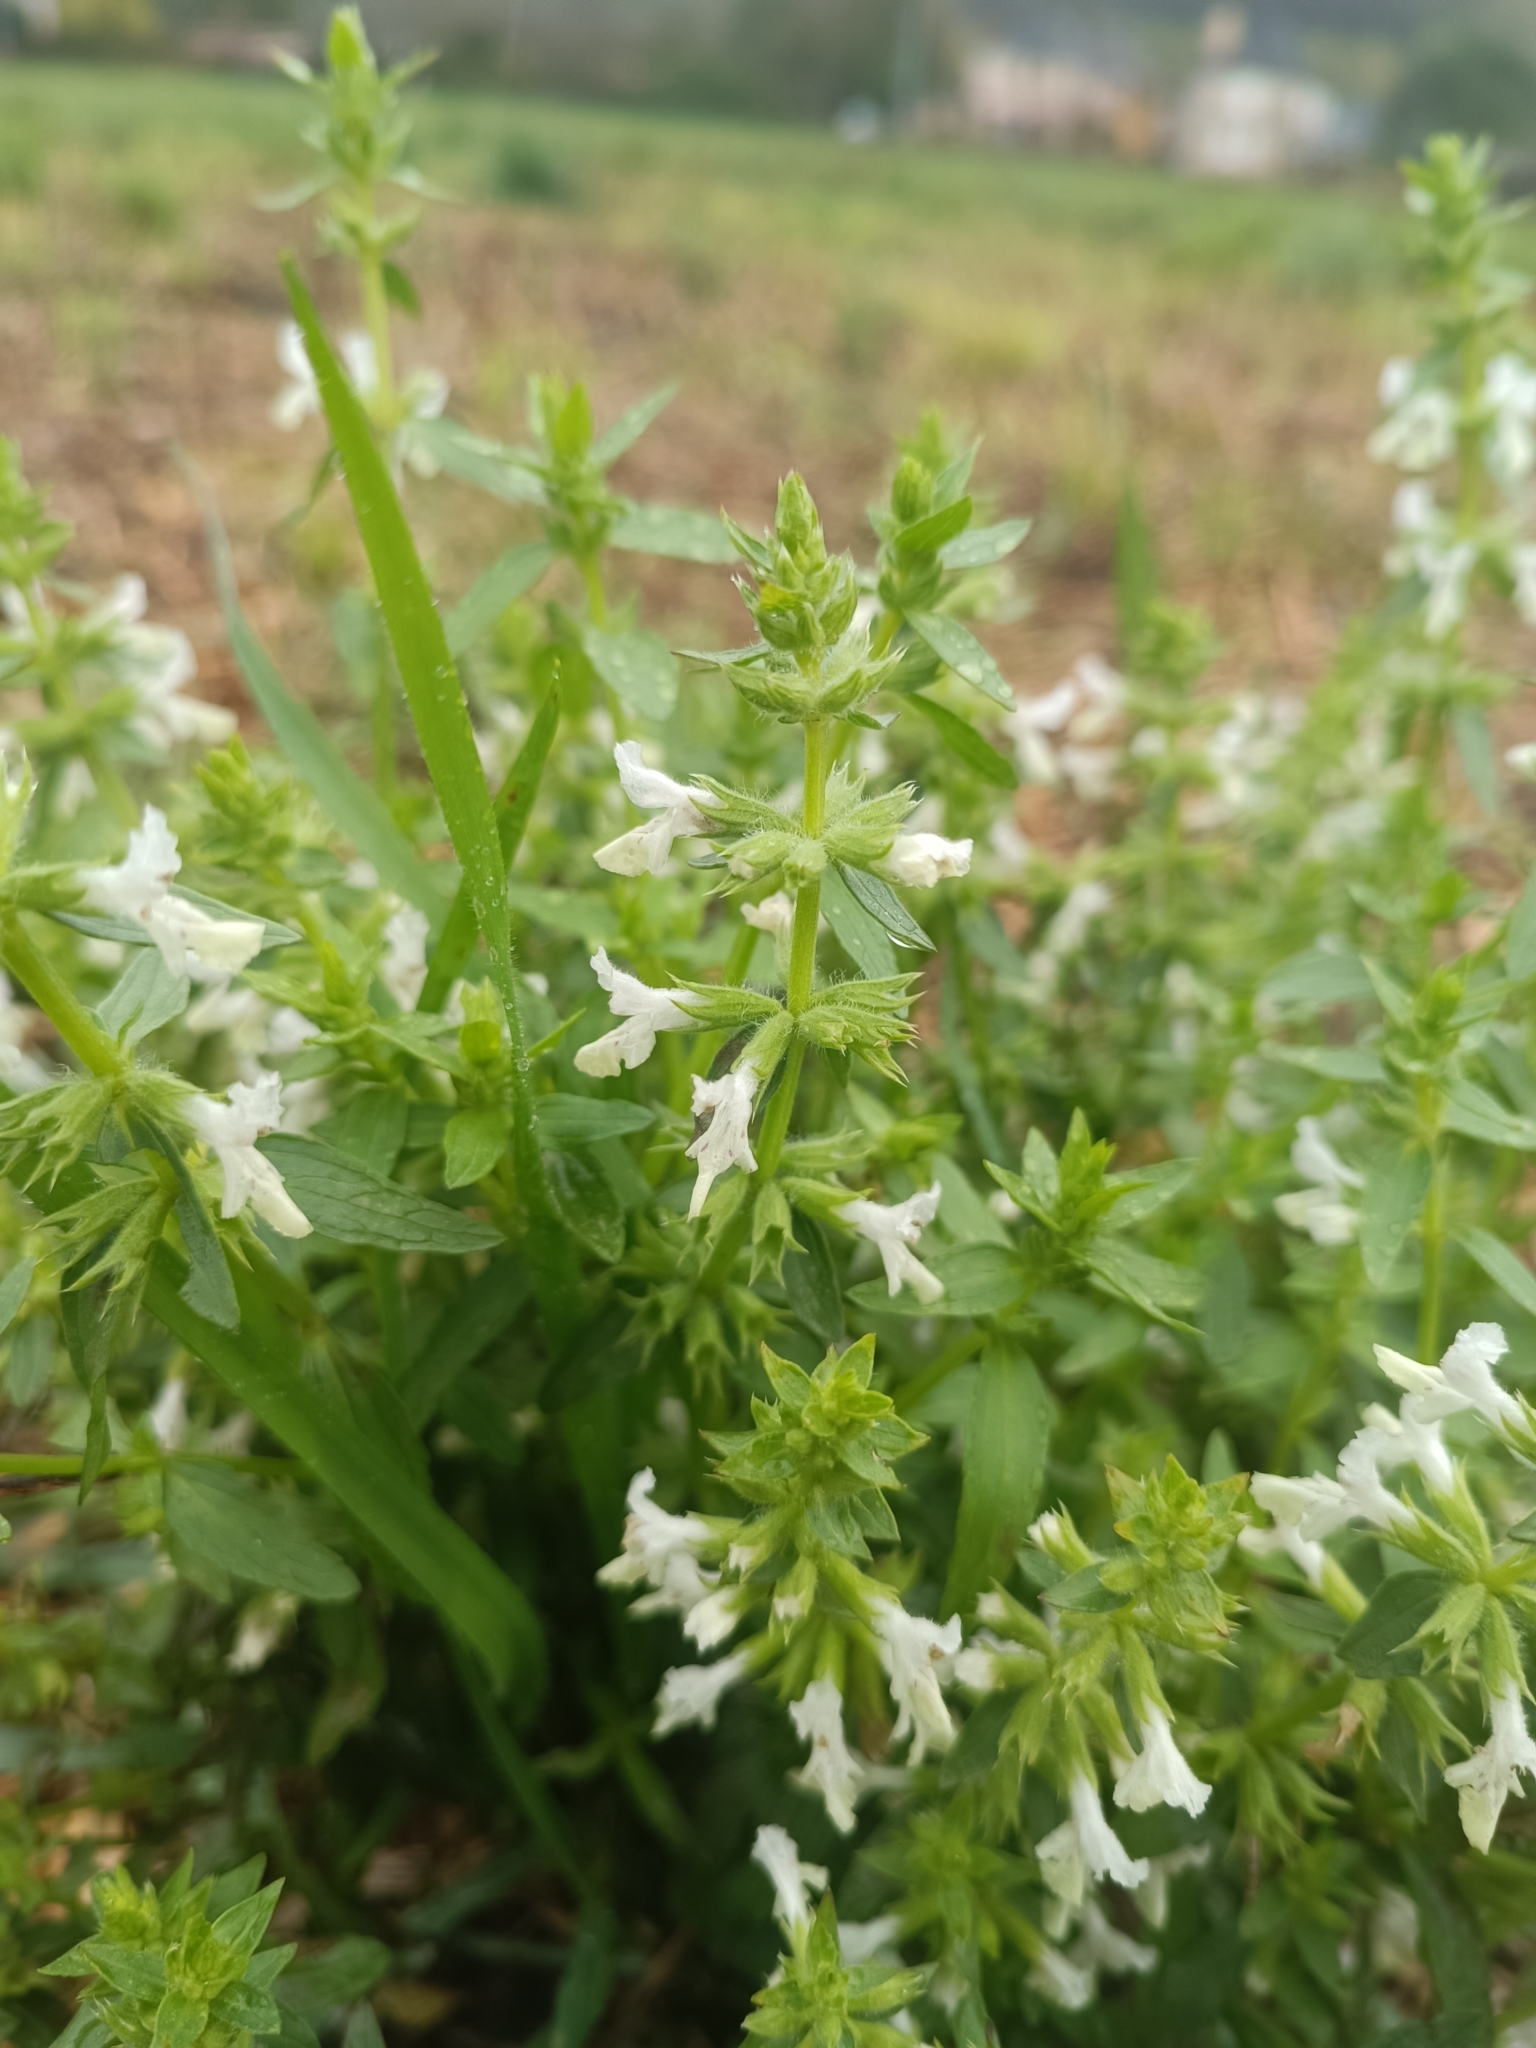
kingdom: Plantae
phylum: Tracheophyta
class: Magnoliopsida
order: Lamiales
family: Lamiaceae
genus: Stachys
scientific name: Stachys annua
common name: Annual yellow-woundwort
